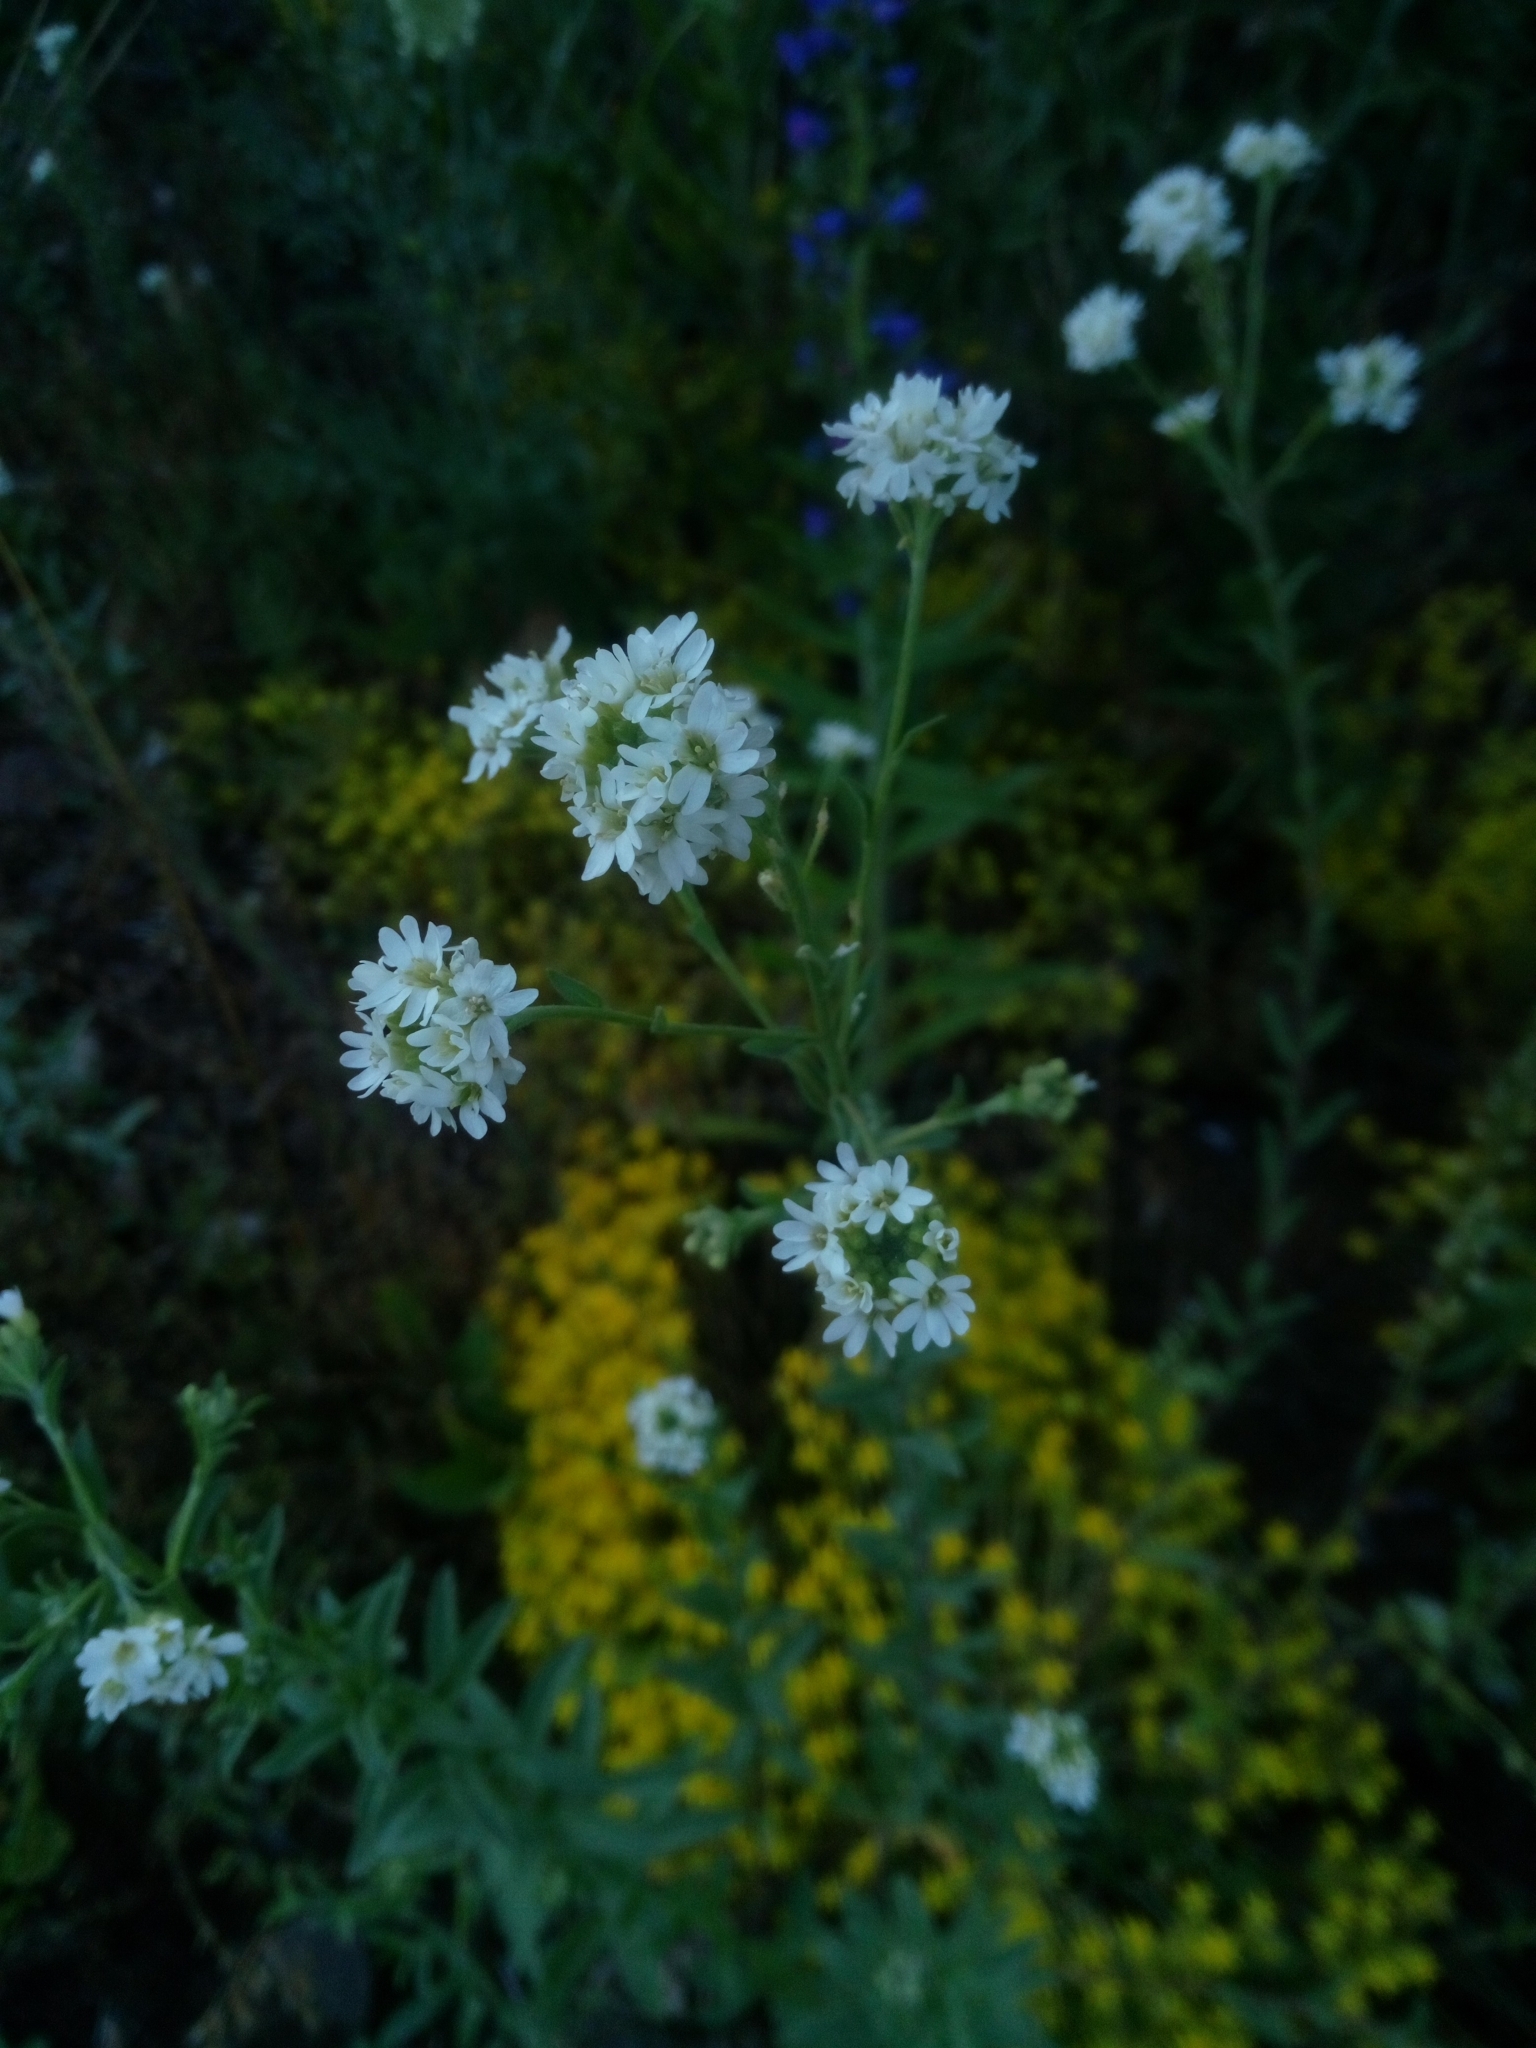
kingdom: Plantae
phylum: Tracheophyta
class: Magnoliopsida
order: Brassicales
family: Brassicaceae
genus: Berteroa
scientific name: Berteroa incana
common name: Hoary alison
